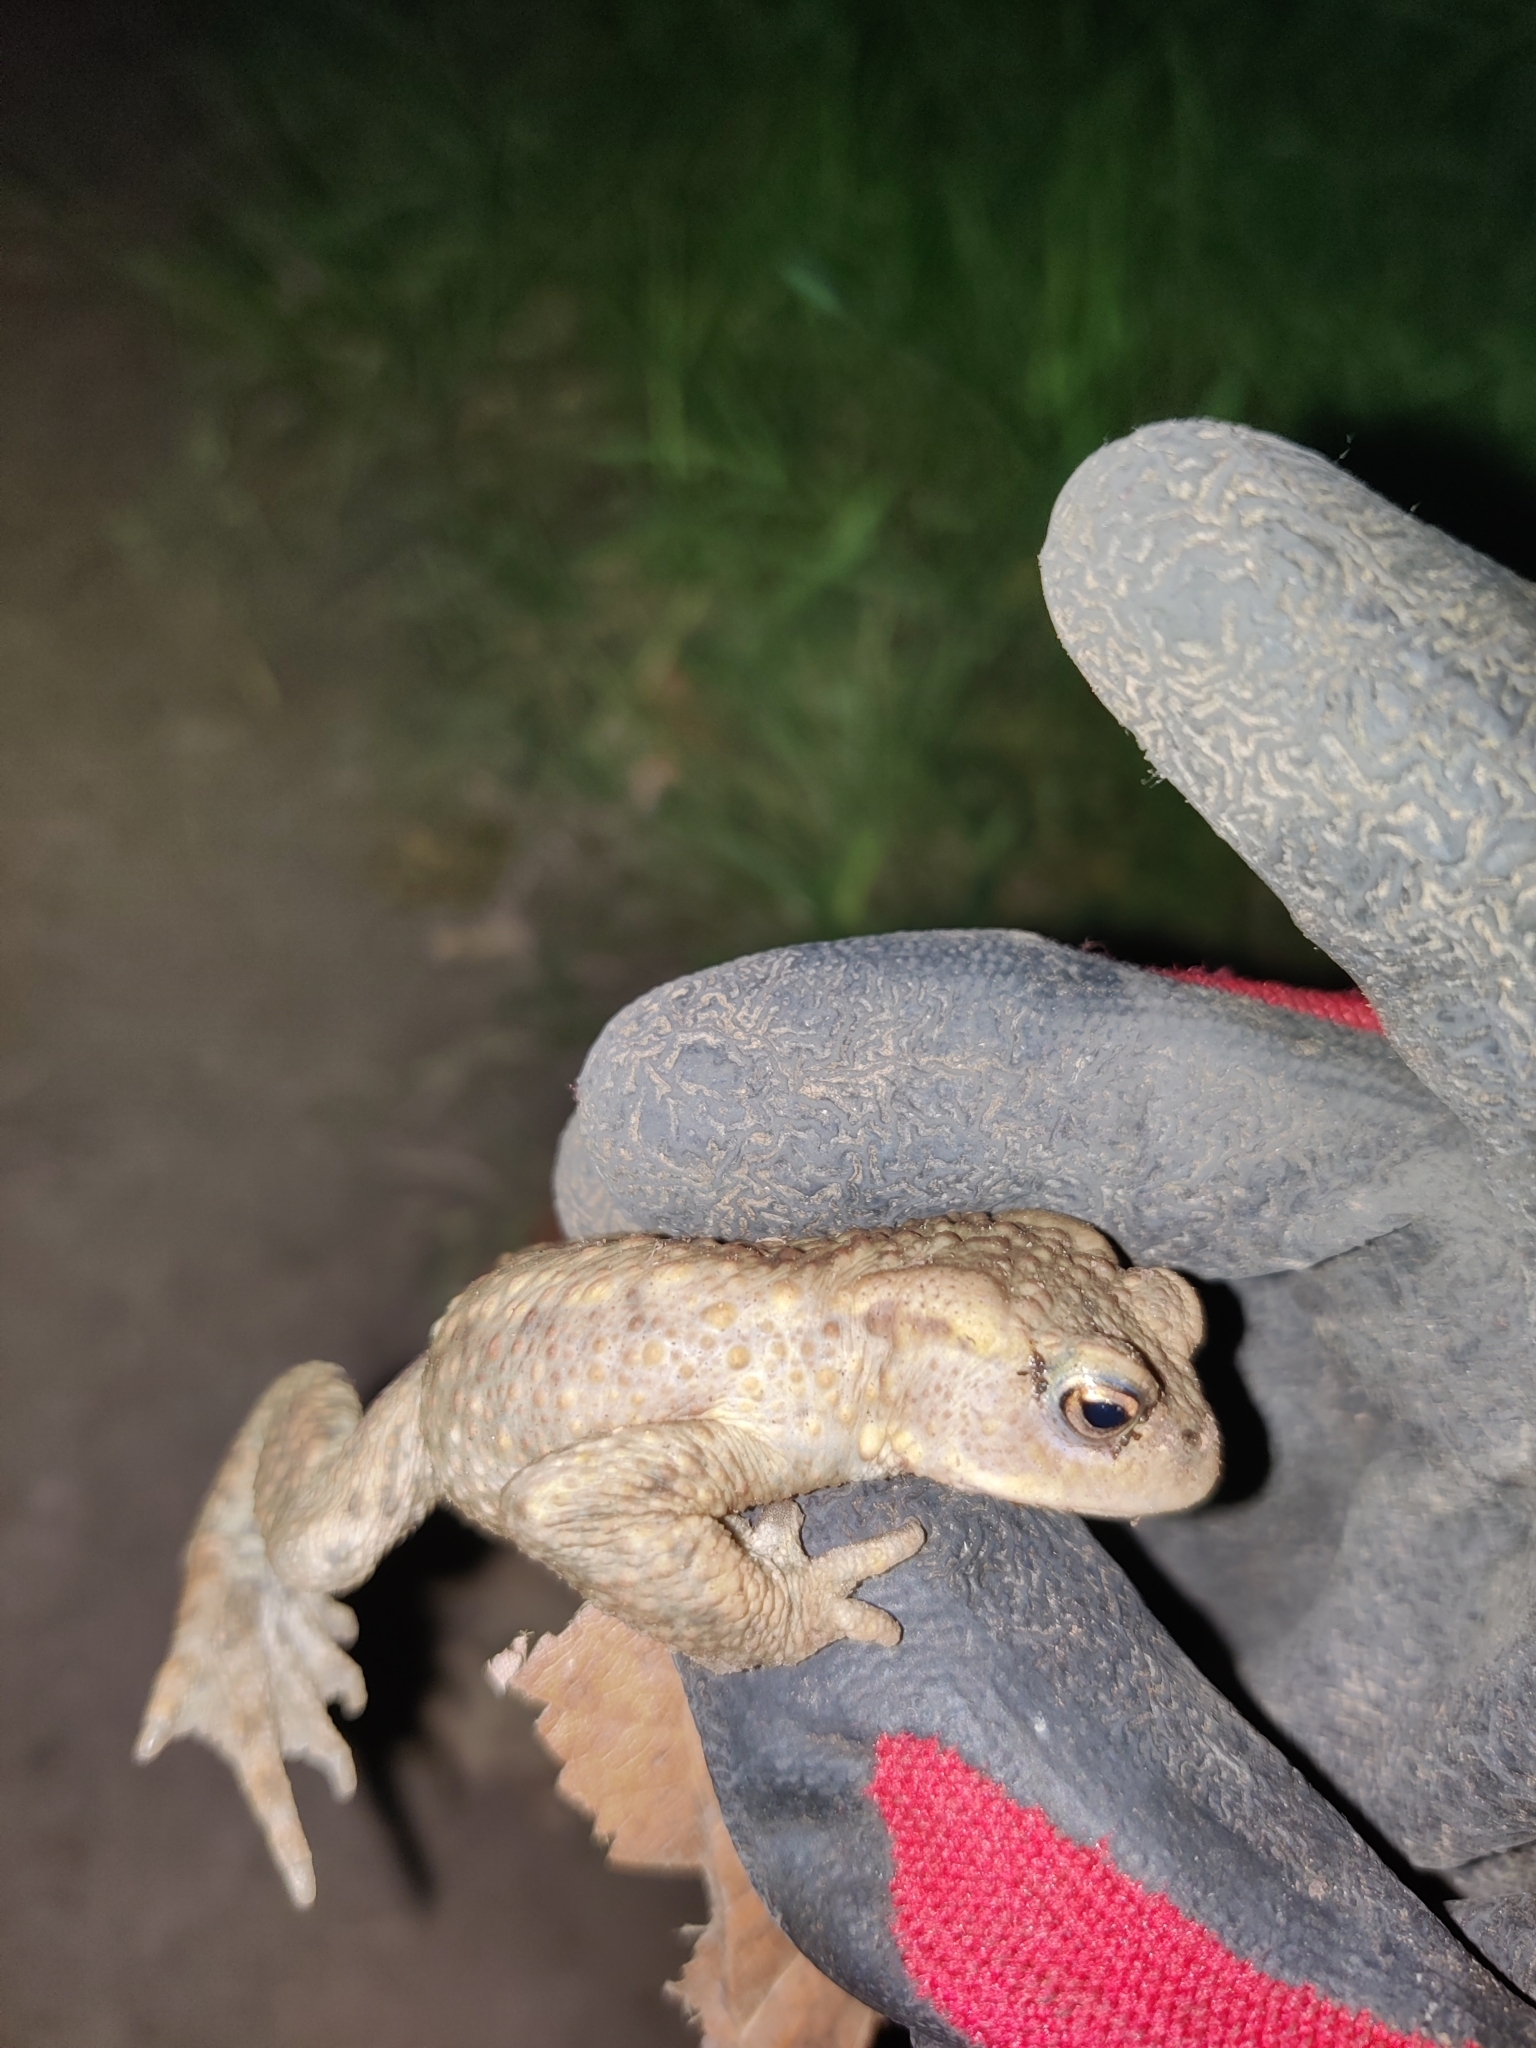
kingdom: Animalia
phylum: Chordata
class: Amphibia
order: Anura
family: Bufonidae
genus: Bufo
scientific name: Bufo bufo
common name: Common toad
